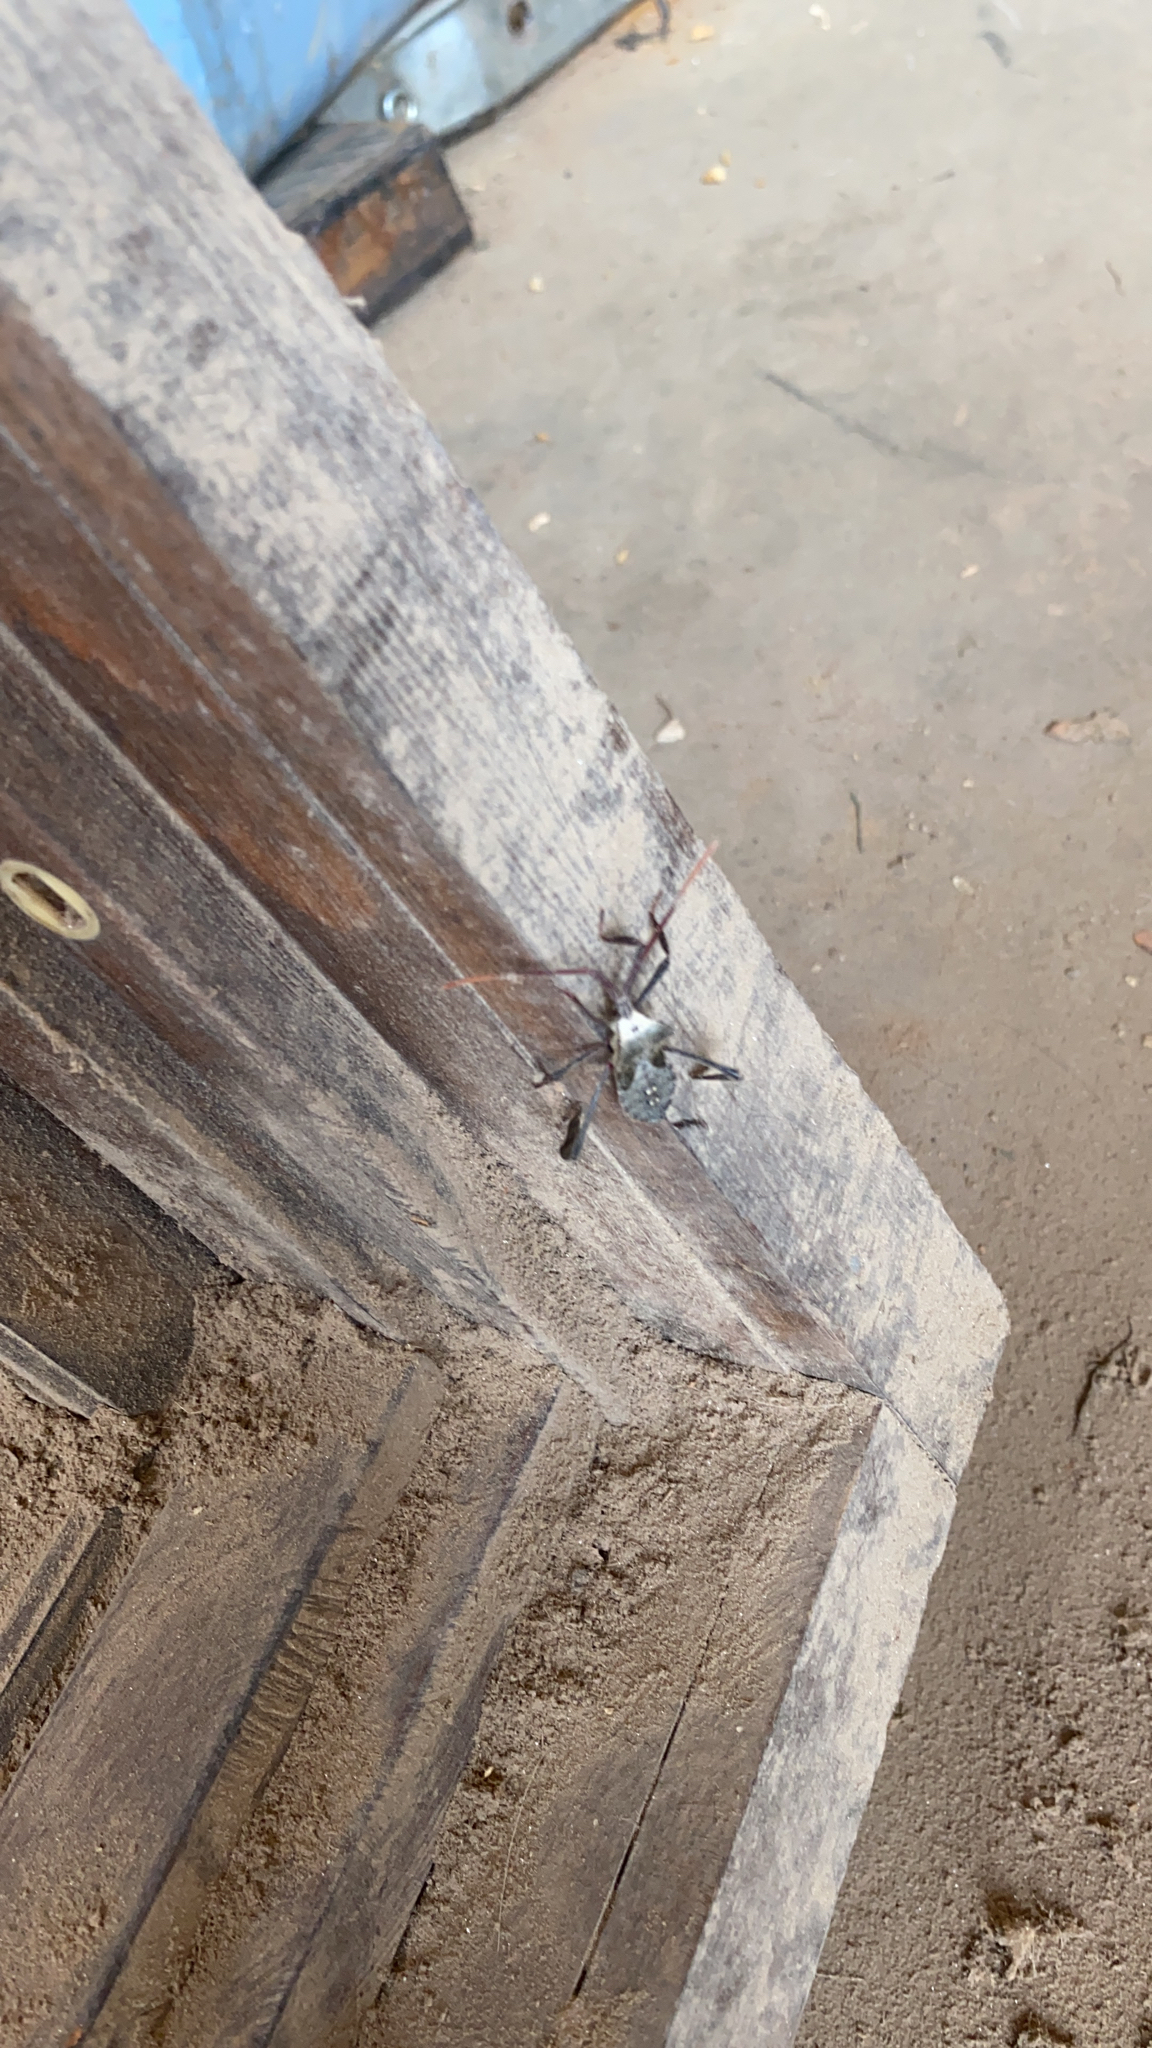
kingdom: Animalia
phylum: Arthropoda
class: Insecta
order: Hemiptera
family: Coreidae
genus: Acanthocephala
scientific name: Acanthocephala declivis
